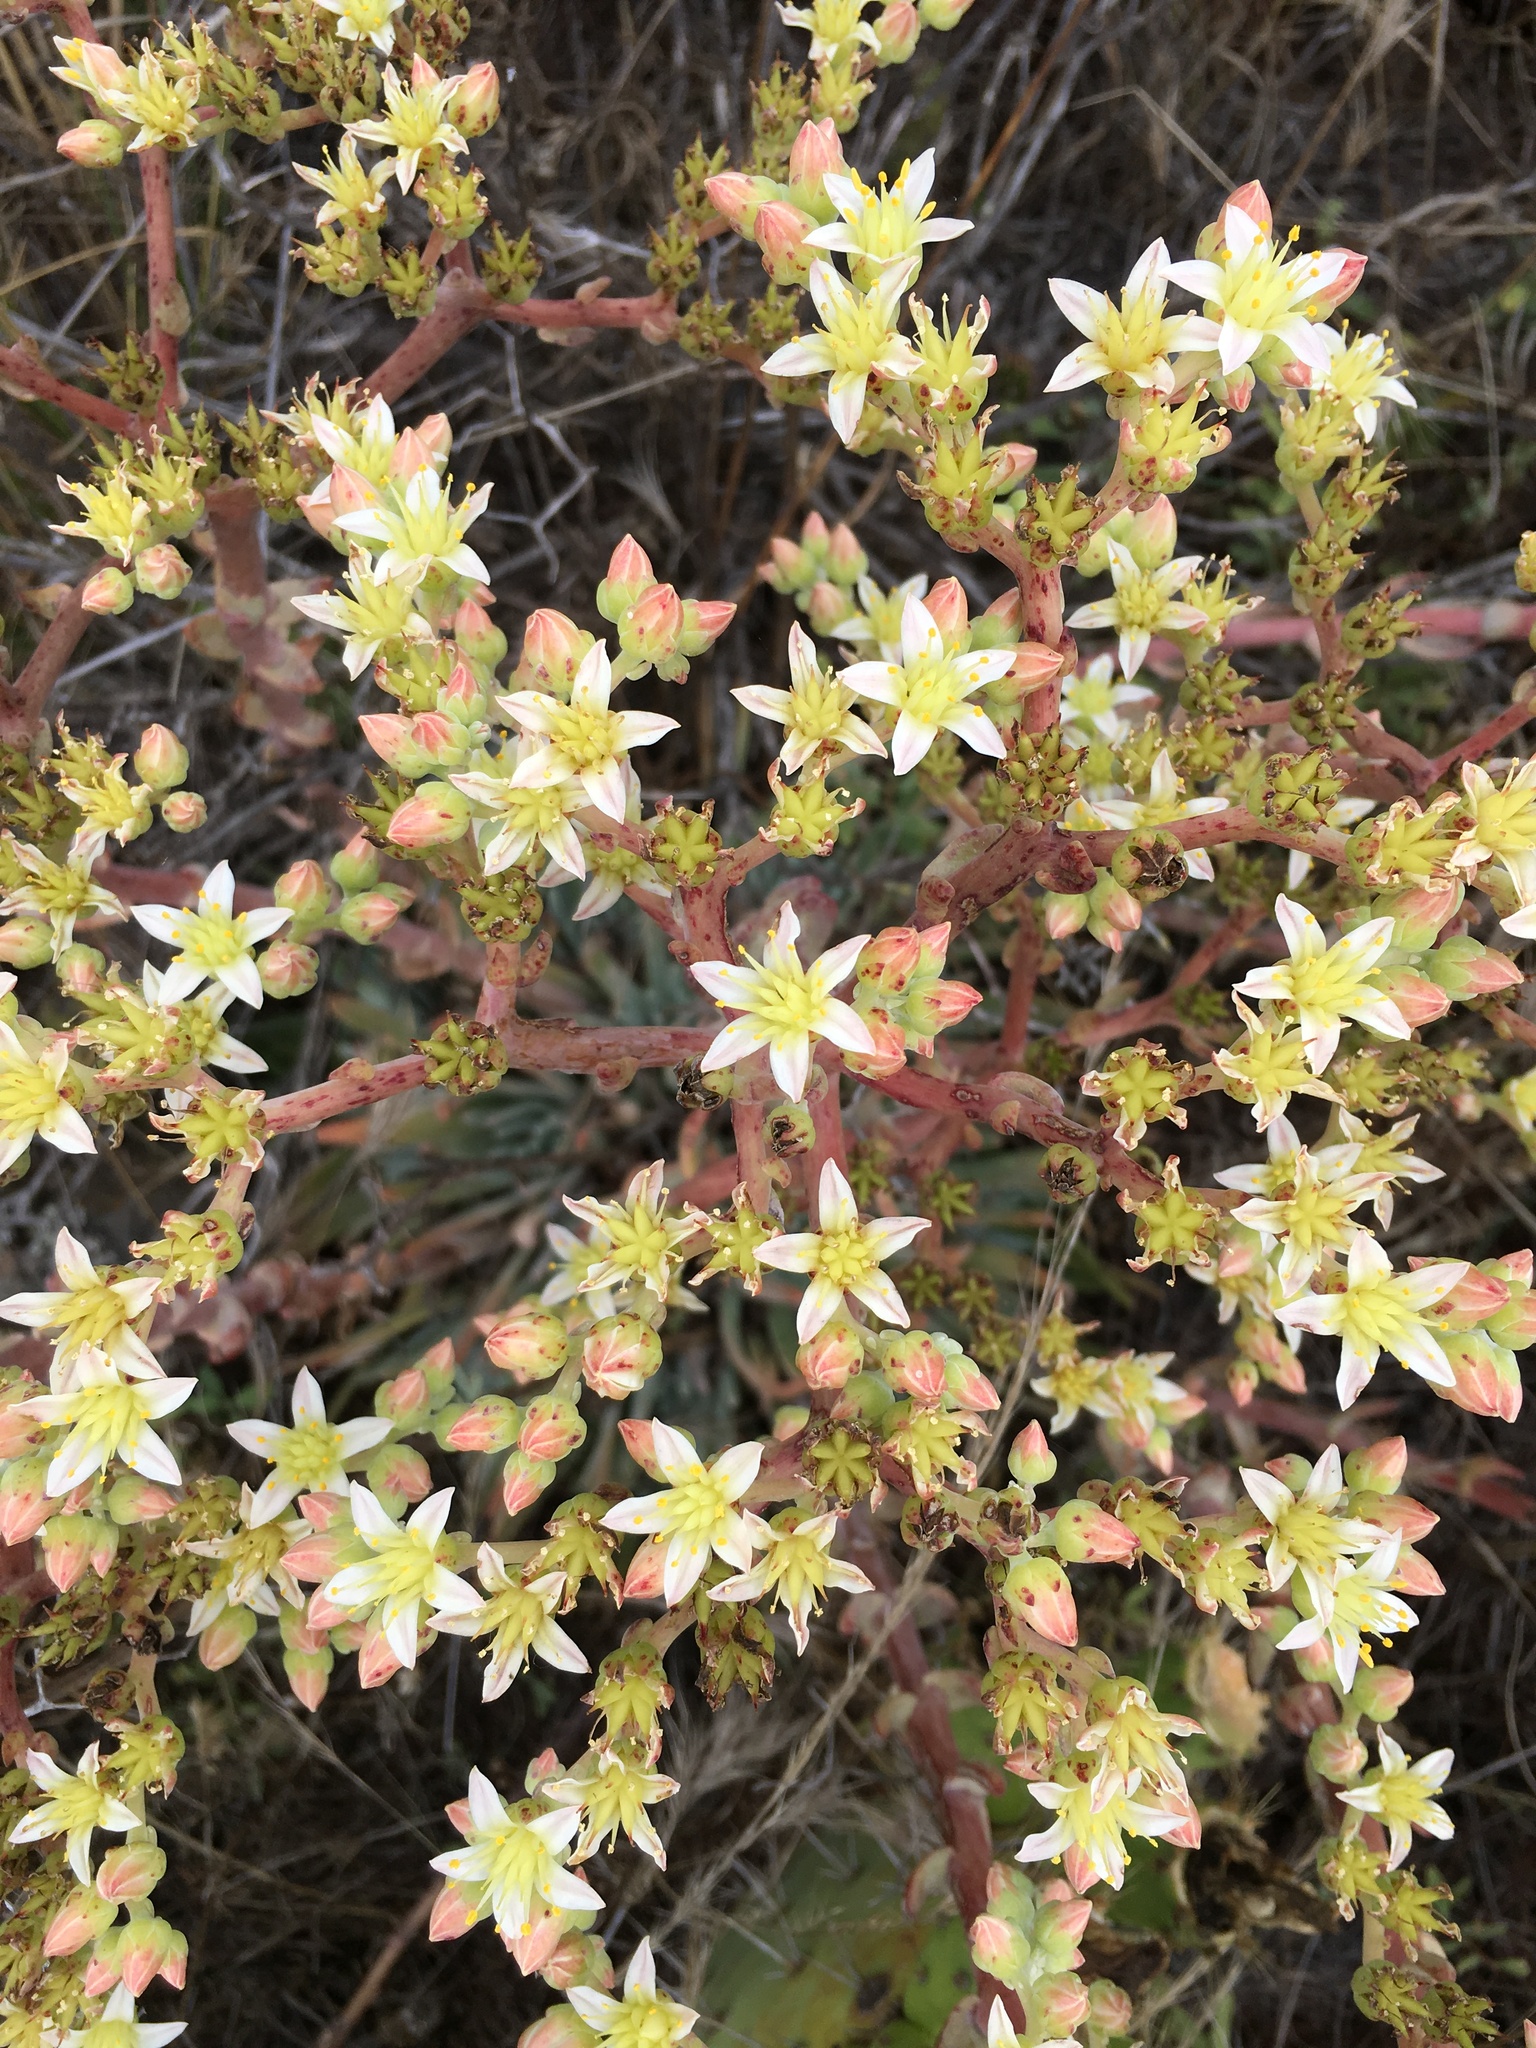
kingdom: Plantae
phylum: Tracheophyta
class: Magnoliopsida
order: Saxifragales
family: Crassulaceae
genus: Dudleya
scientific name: Dudleya virens
